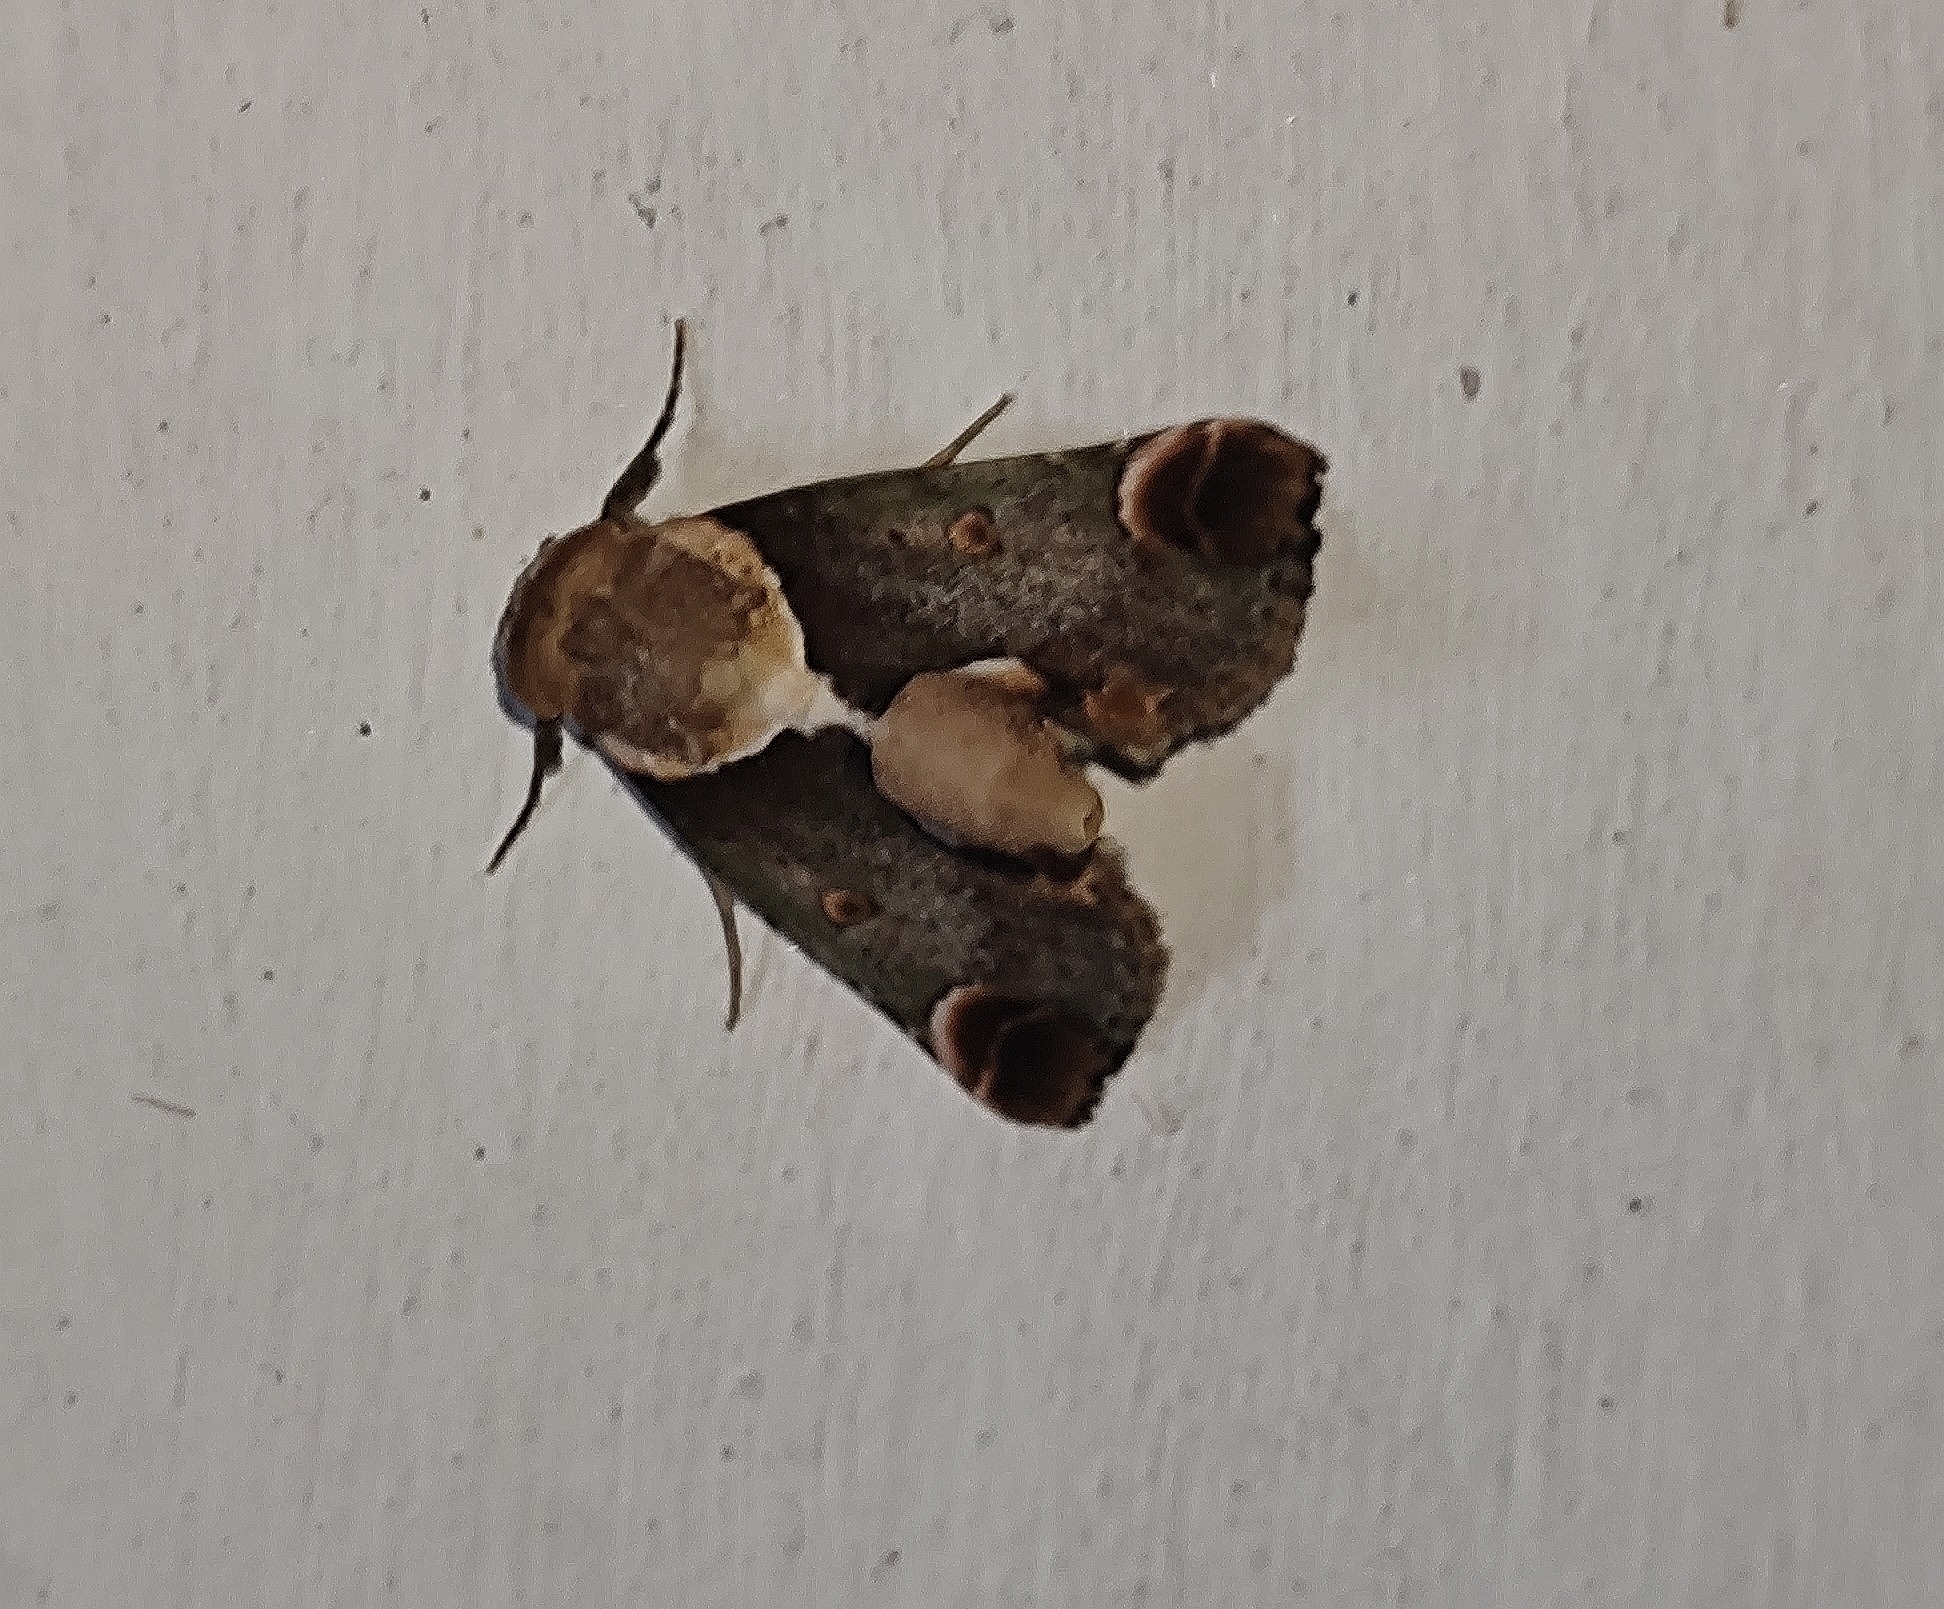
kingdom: Animalia
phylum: Arthropoda
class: Insecta
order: Lepidoptera
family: Nolidae
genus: Risoba
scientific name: Risoba repugnans
